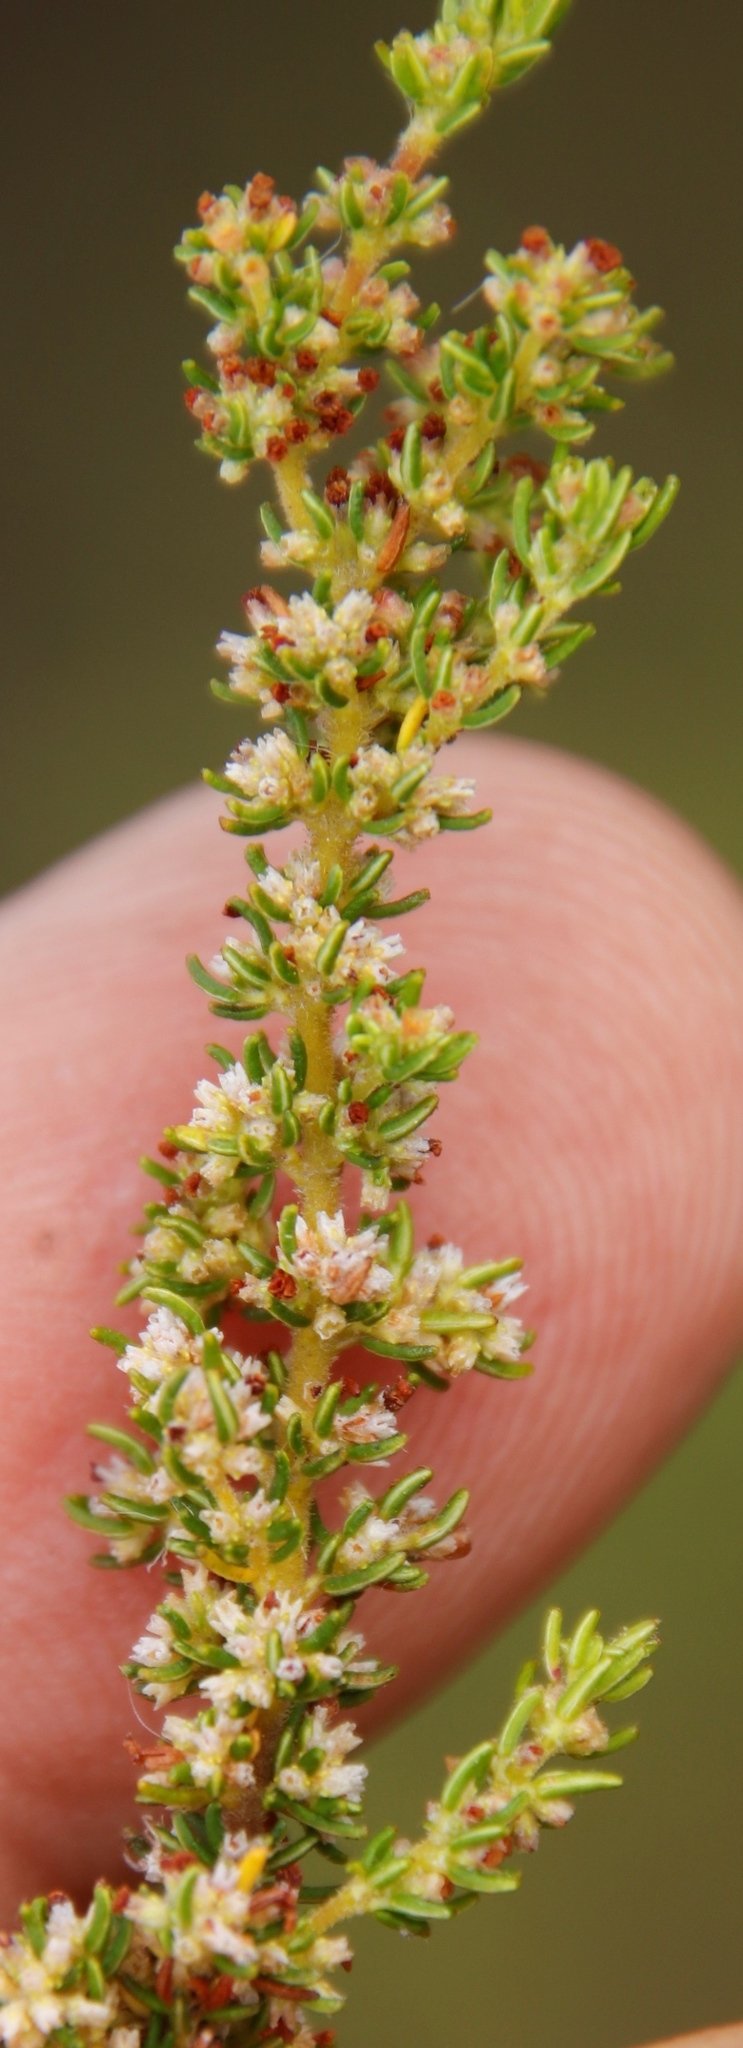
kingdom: Plantae
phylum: Tracheophyta
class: Magnoliopsida
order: Ericales
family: Ericaceae
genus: Erica
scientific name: Erica muscosa
